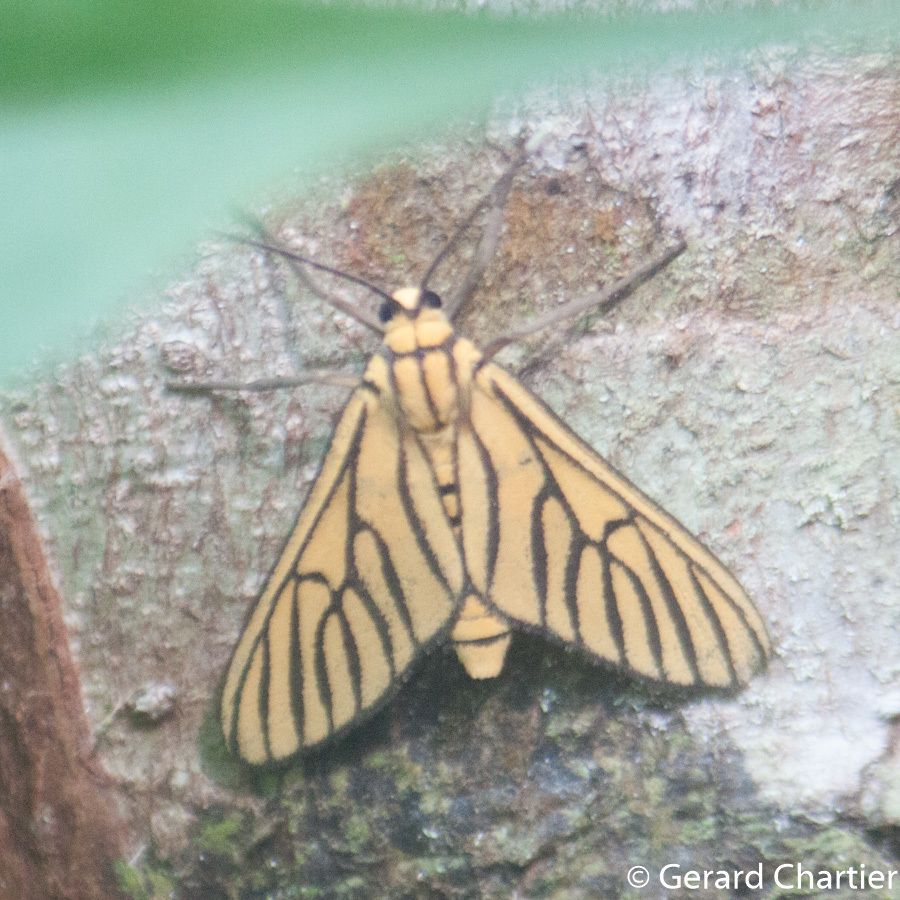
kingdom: Animalia
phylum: Arthropoda
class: Insecta
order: Lepidoptera
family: Erebidae
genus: Amata
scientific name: Amata tigrina
